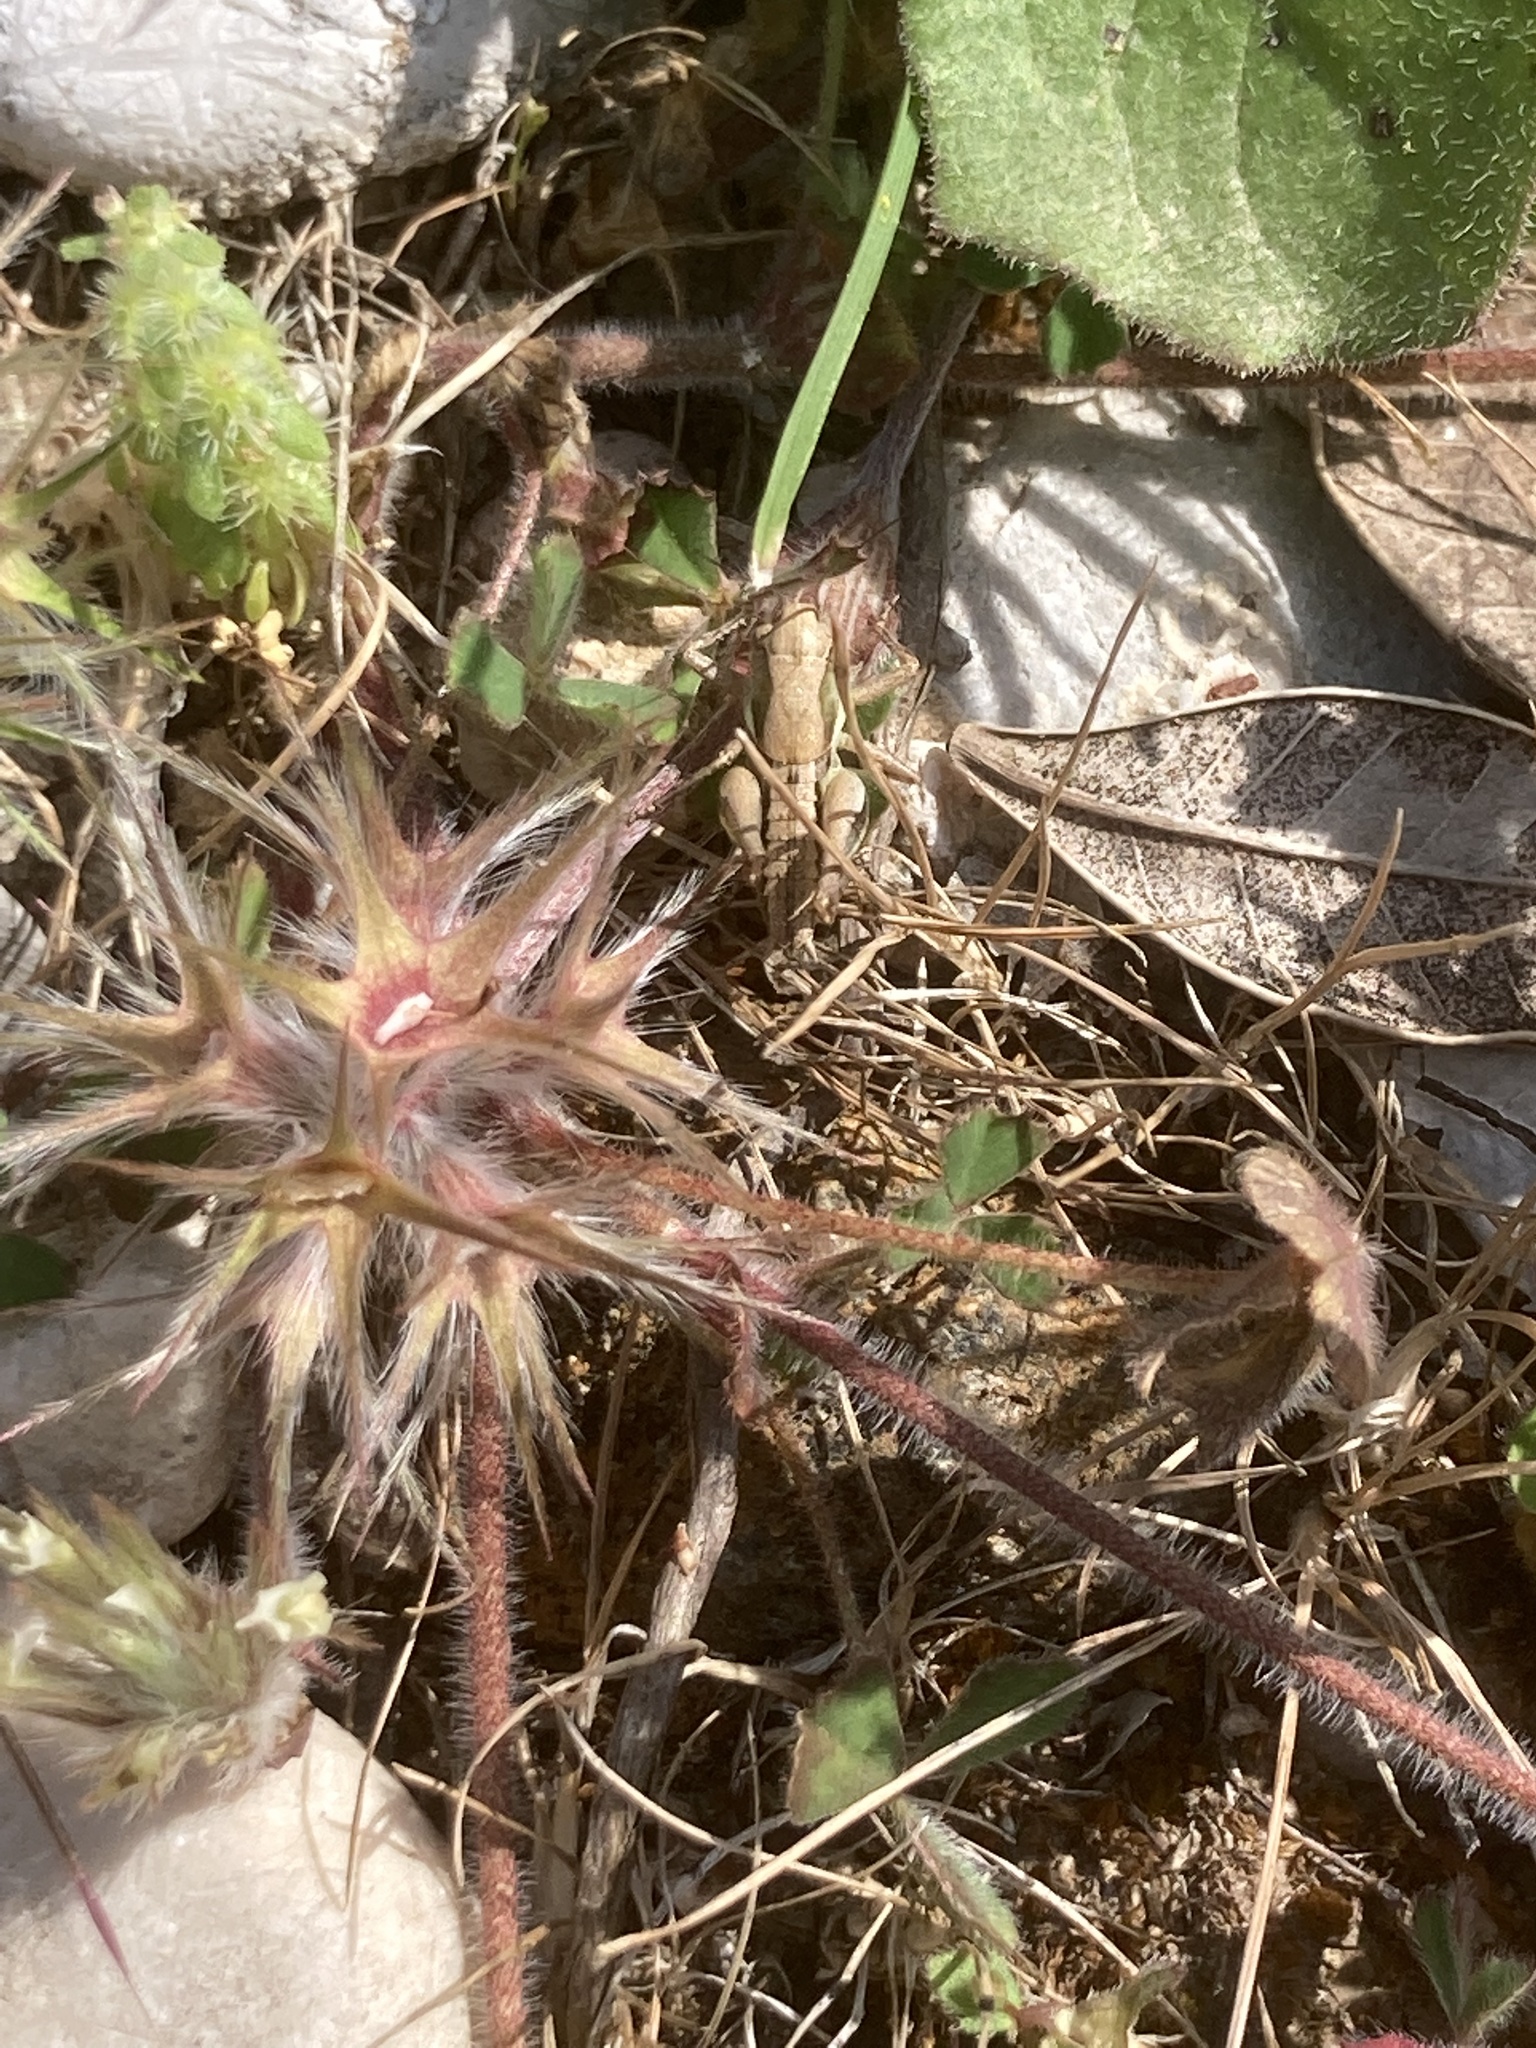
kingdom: Plantae
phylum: Tracheophyta
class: Magnoliopsida
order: Fabales
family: Fabaceae
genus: Trifolium
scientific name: Trifolium stellatum
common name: Starry clover
